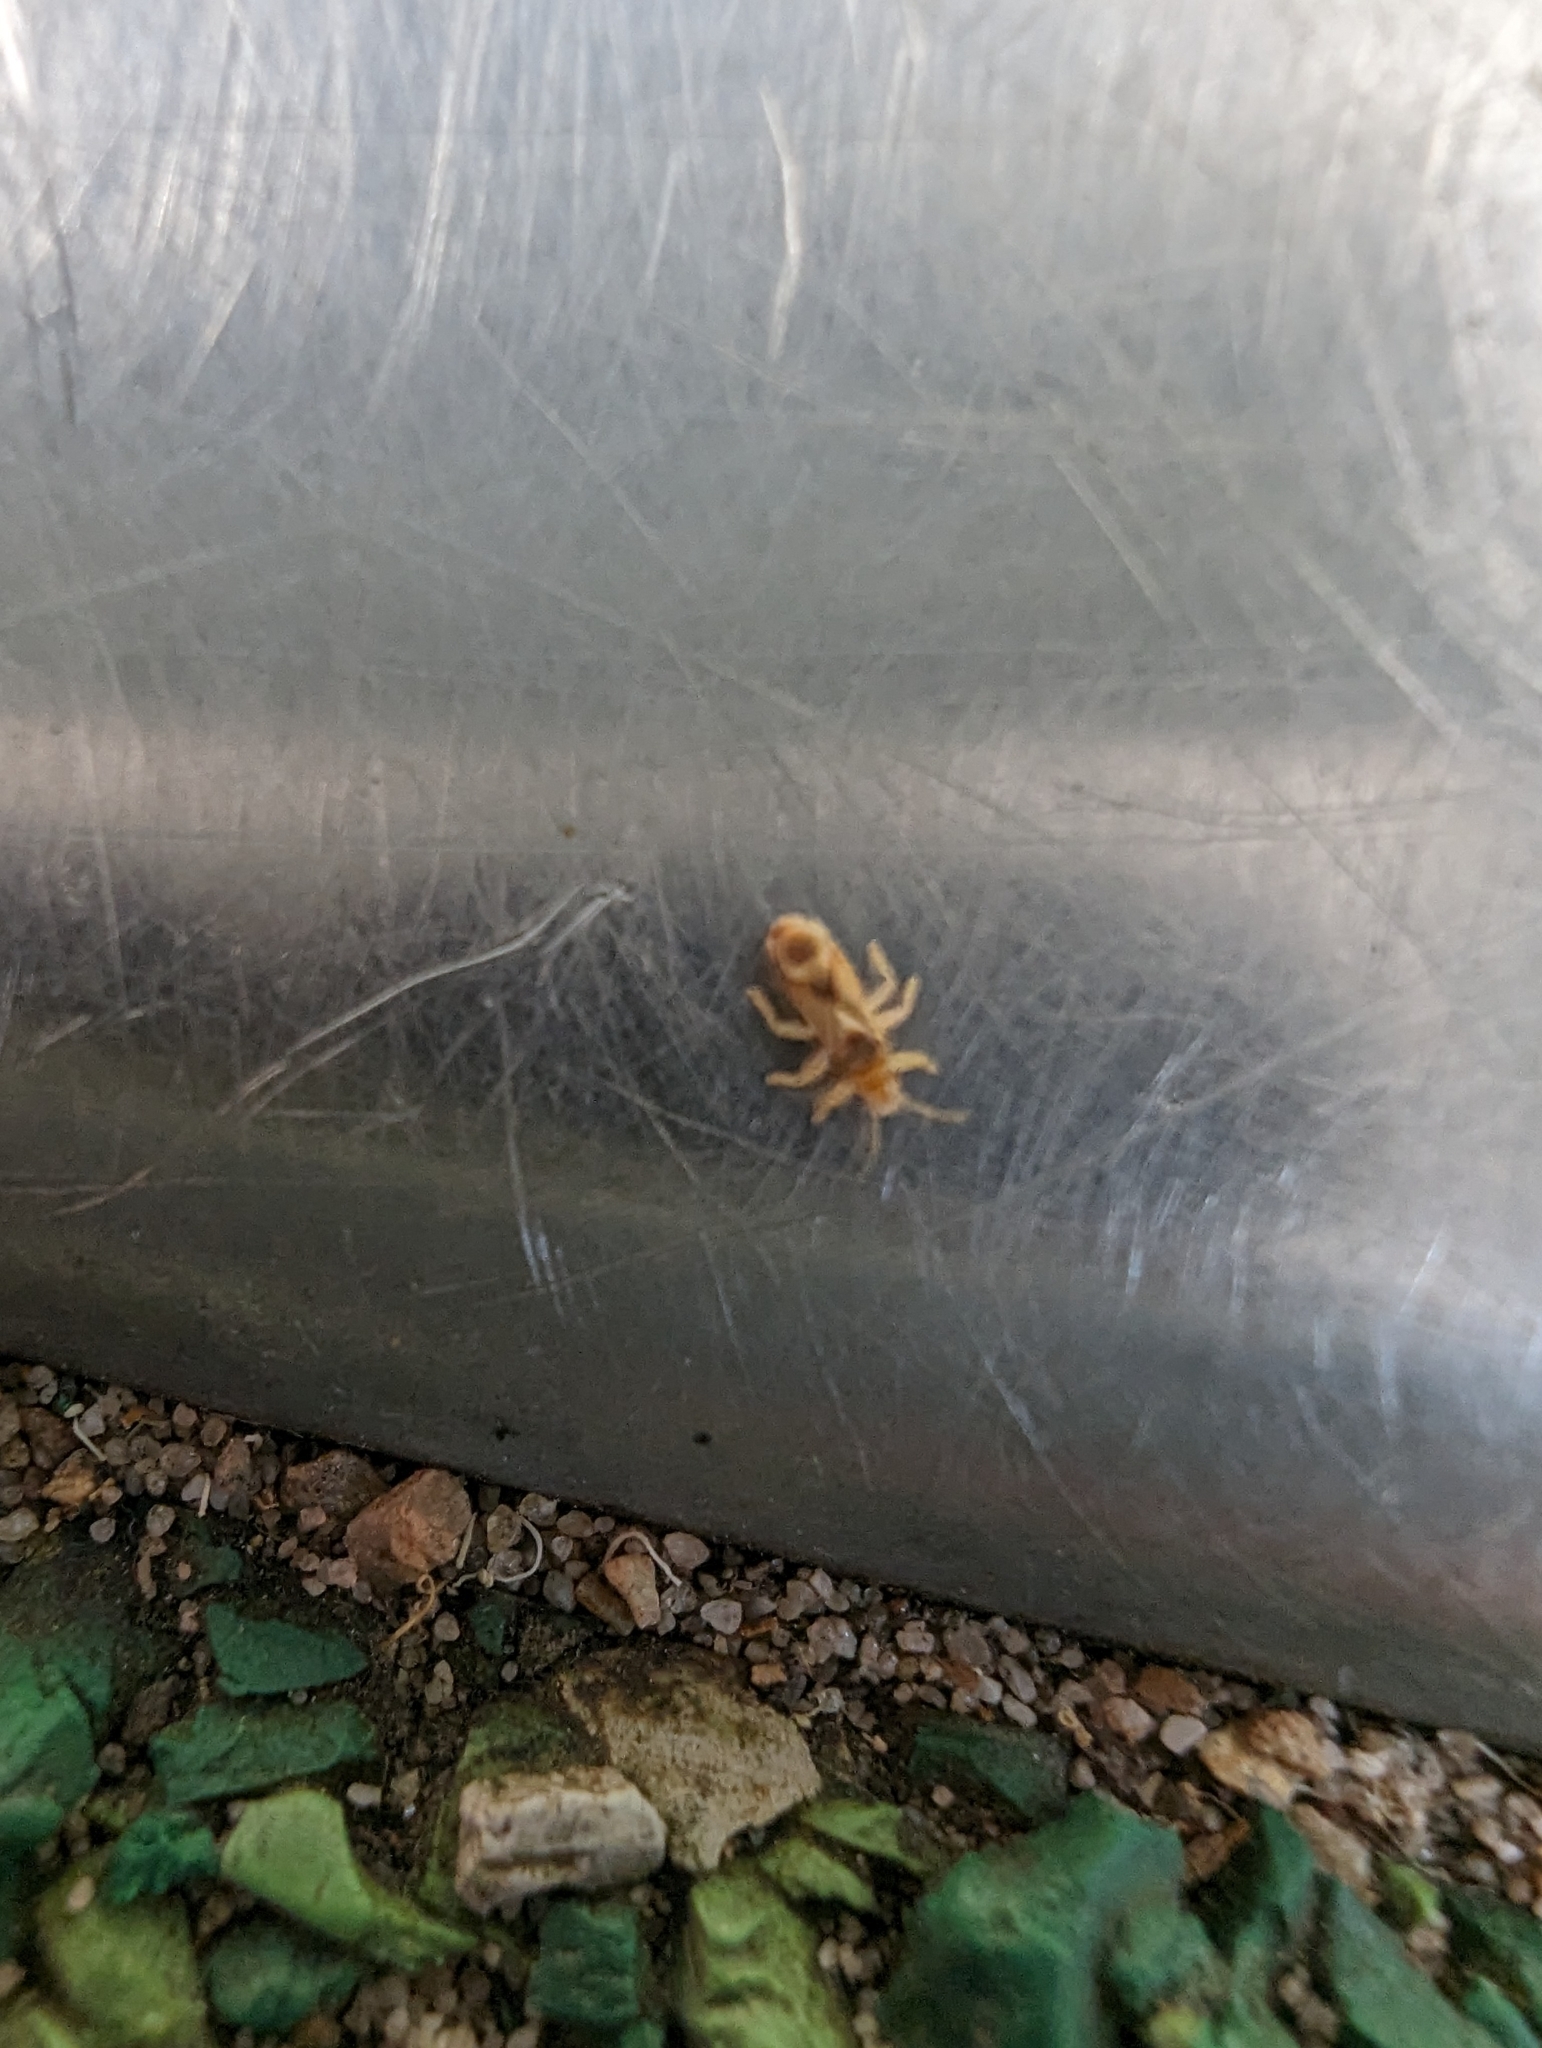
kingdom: Animalia
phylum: Arthropoda
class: Insecta
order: Hemiptera
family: Thaumastocoridae
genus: Thaumastocoris
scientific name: Thaumastocoris peregrinus
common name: Bronze bug
